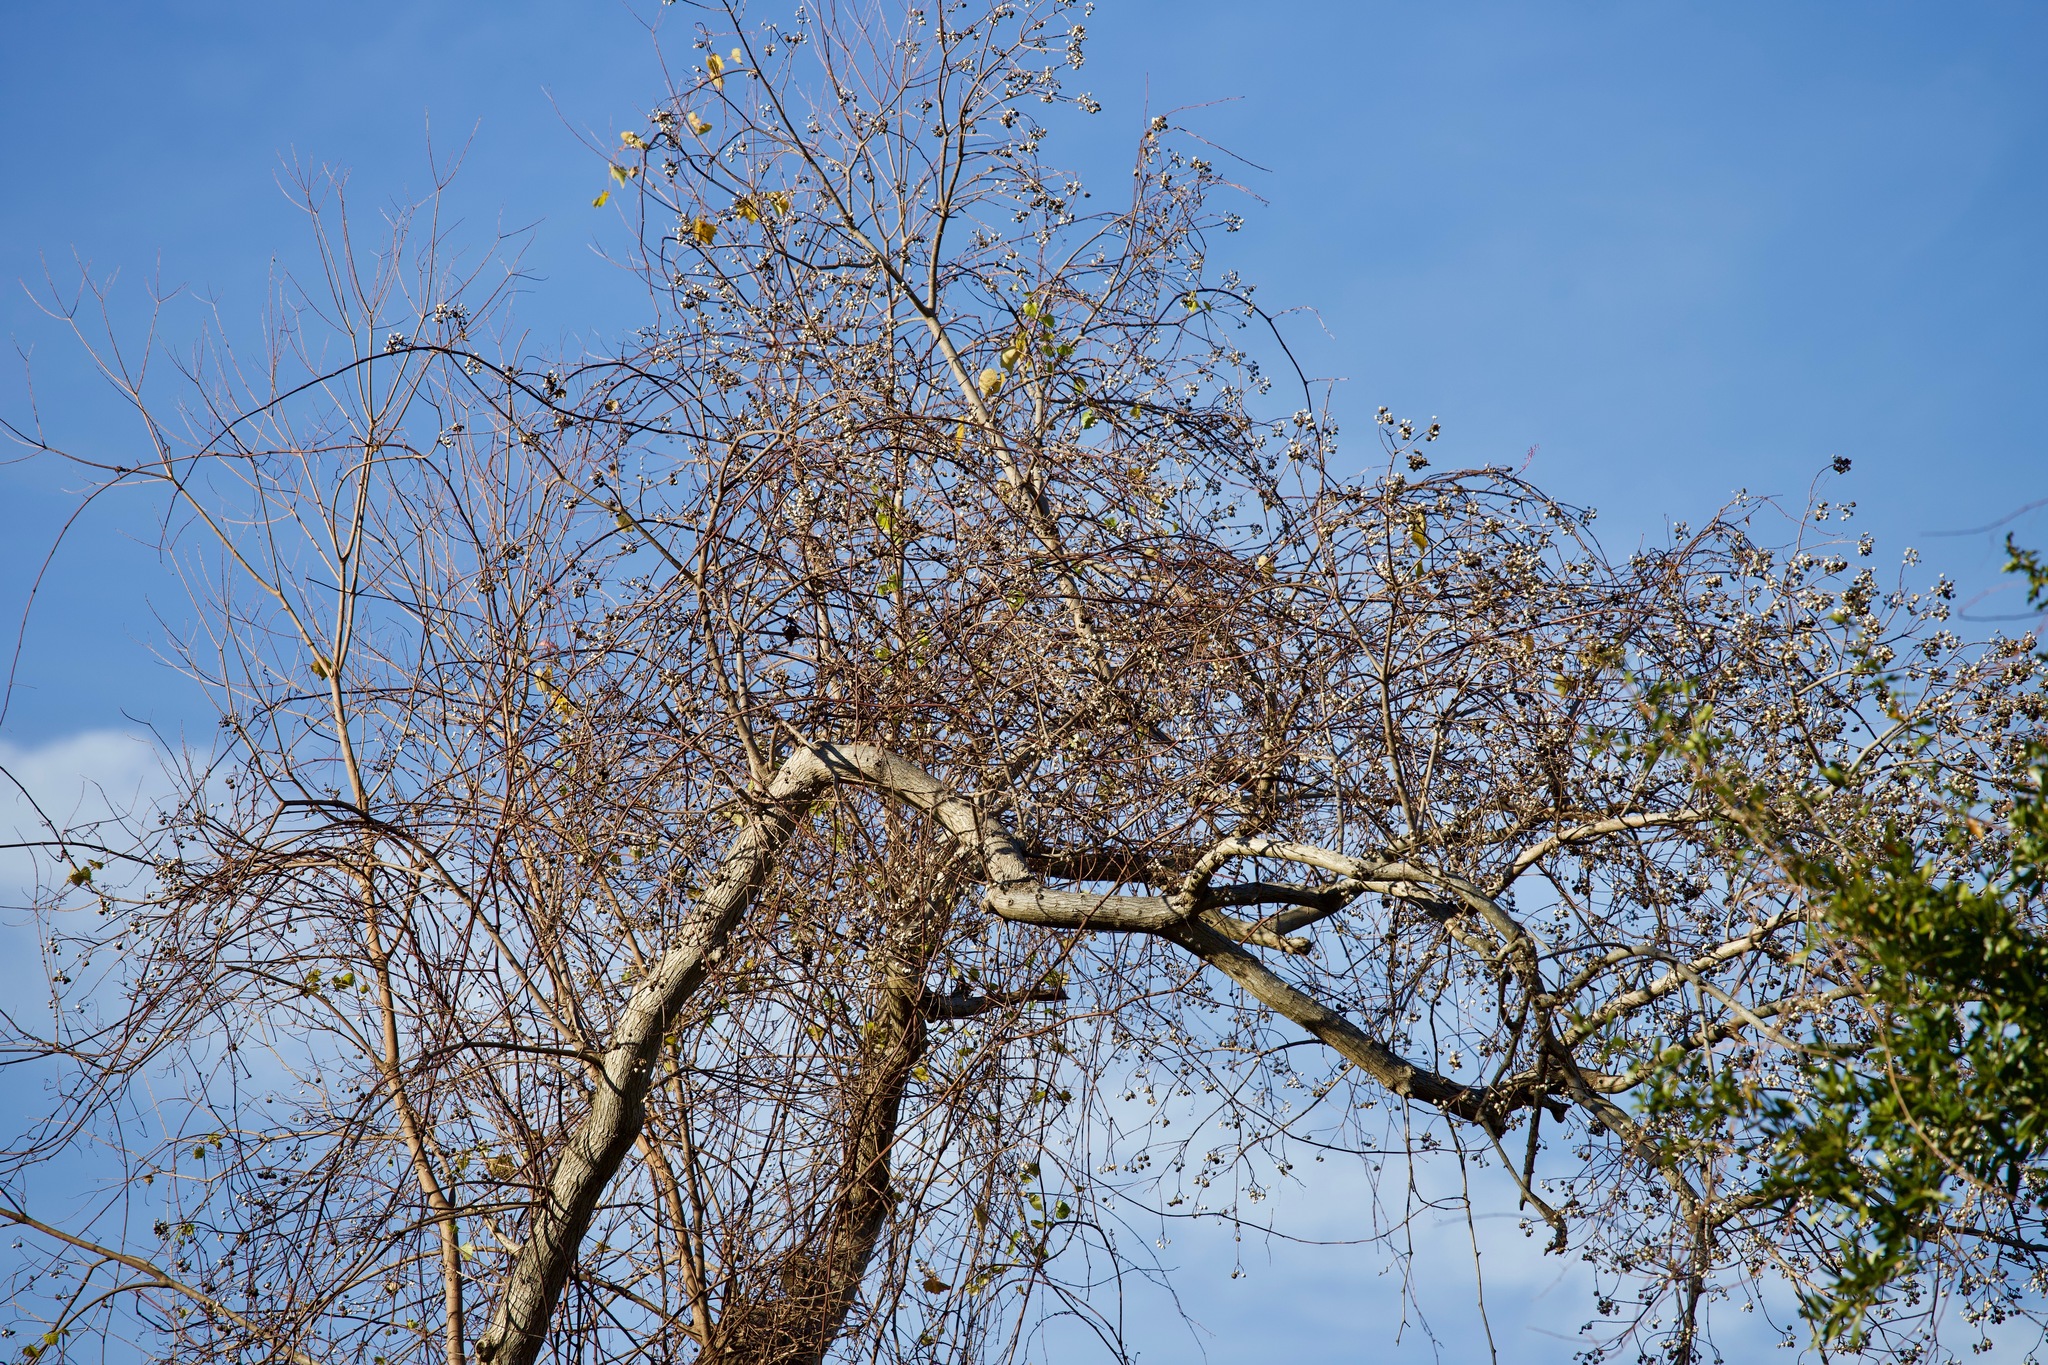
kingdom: Plantae
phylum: Tracheophyta
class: Magnoliopsida
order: Malpighiales
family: Euphorbiaceae
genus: Triadica
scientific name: Triadica sebifera
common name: Chinese tallow
